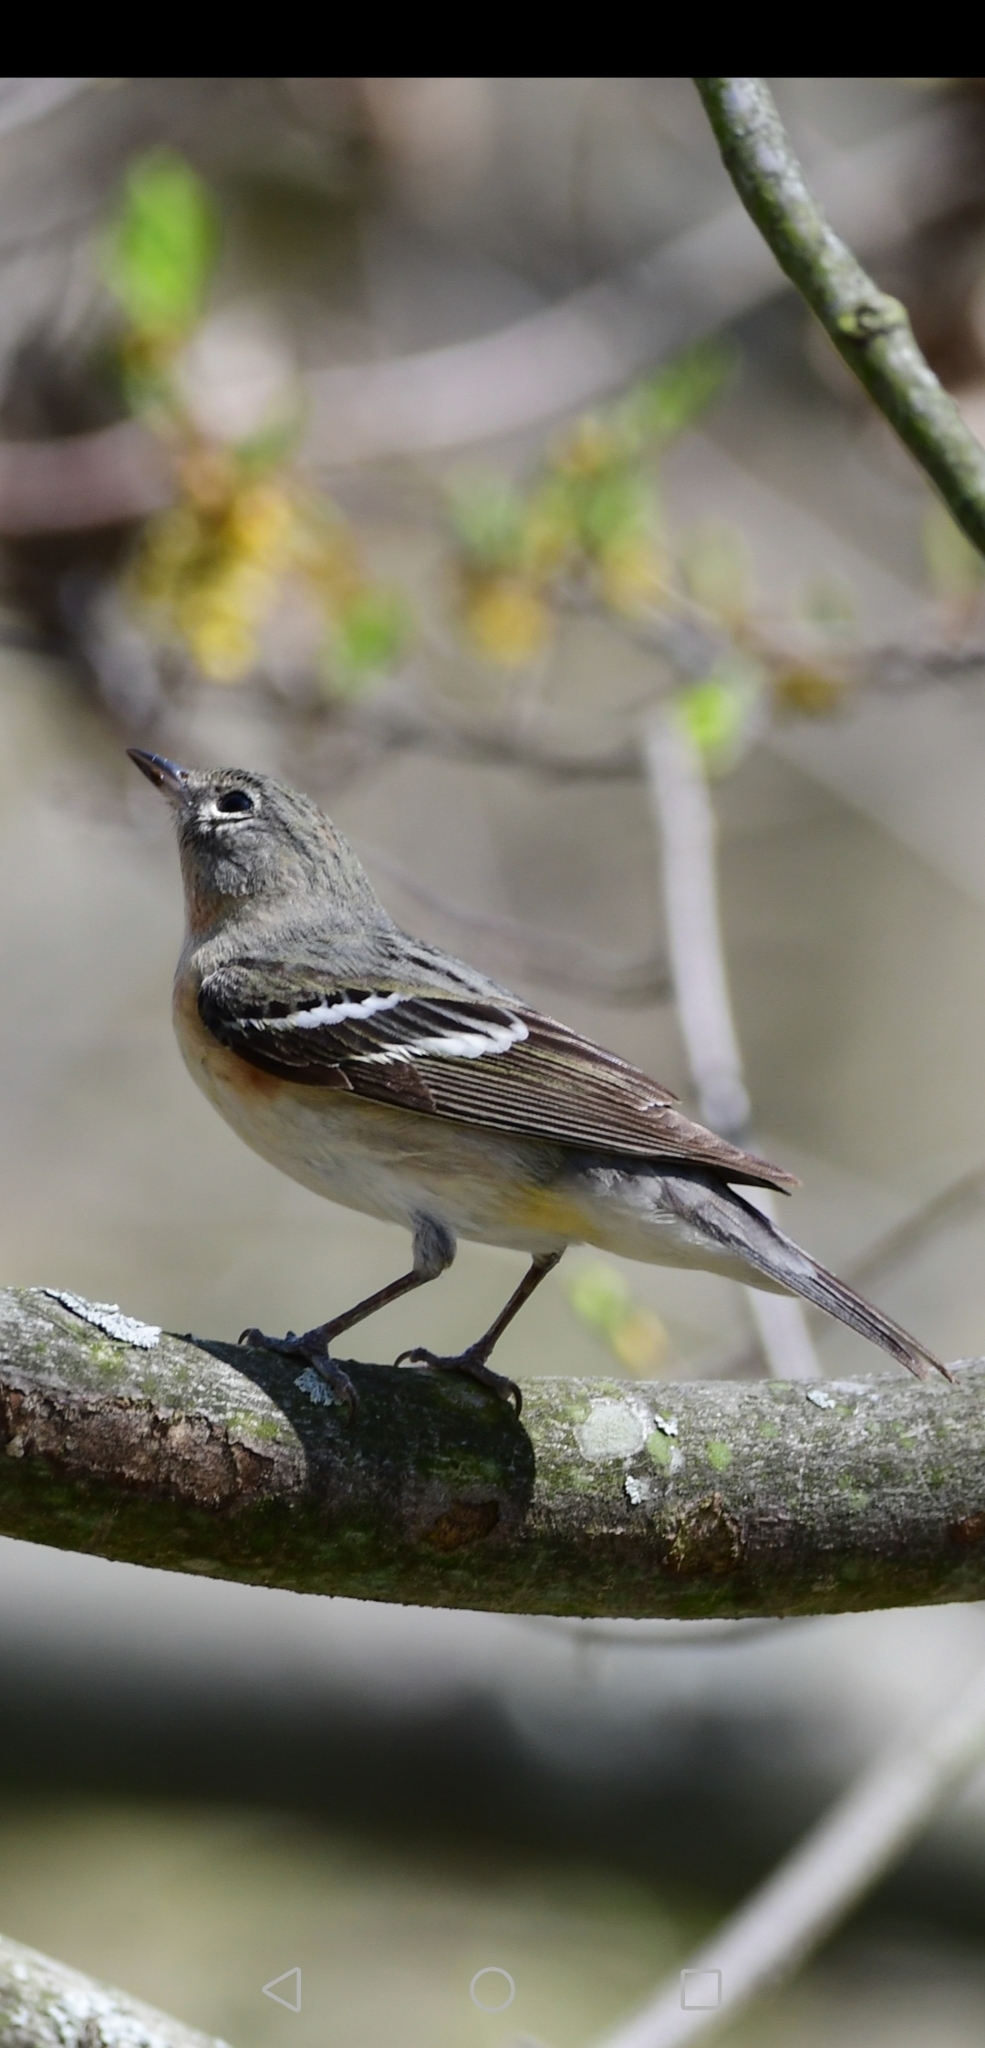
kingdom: Animalia
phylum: Chordata
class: Aves
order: Passeriformes
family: Parulidae
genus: Setophaga
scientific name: Setophaga castanea
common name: Bay-breasted warbler
